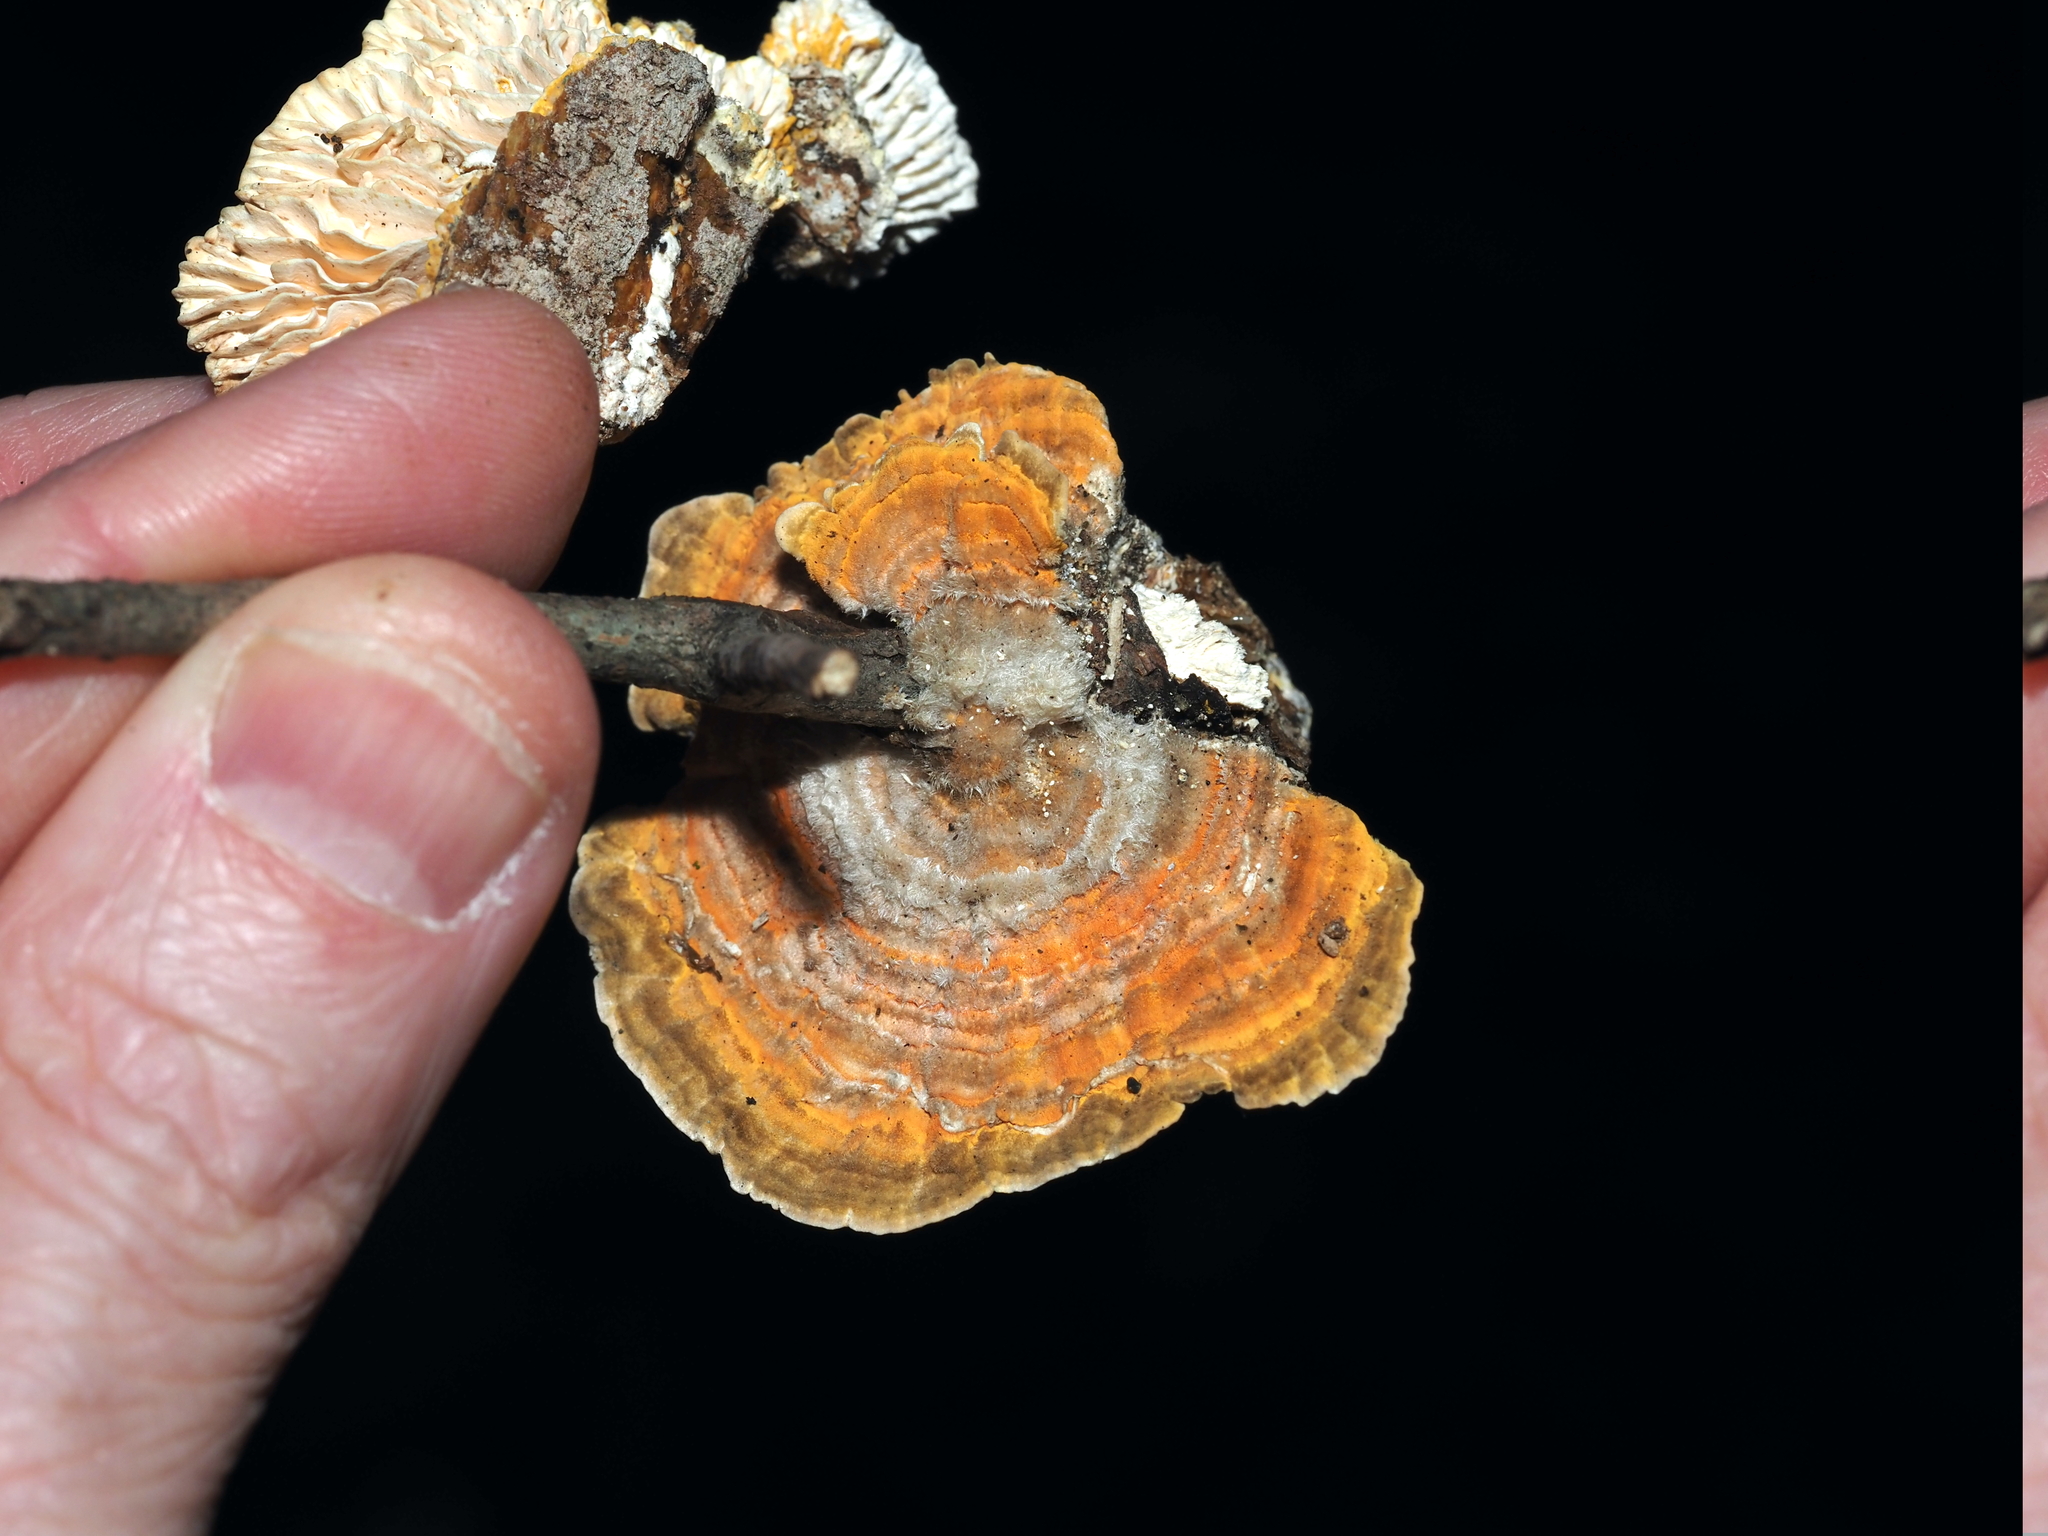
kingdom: Fungi
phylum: Basidiomycota
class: Agaricomycetes
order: Polyporales
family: Polyporaceae
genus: Lenzites
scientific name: Lenzites betulinus
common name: Birch mazegill
